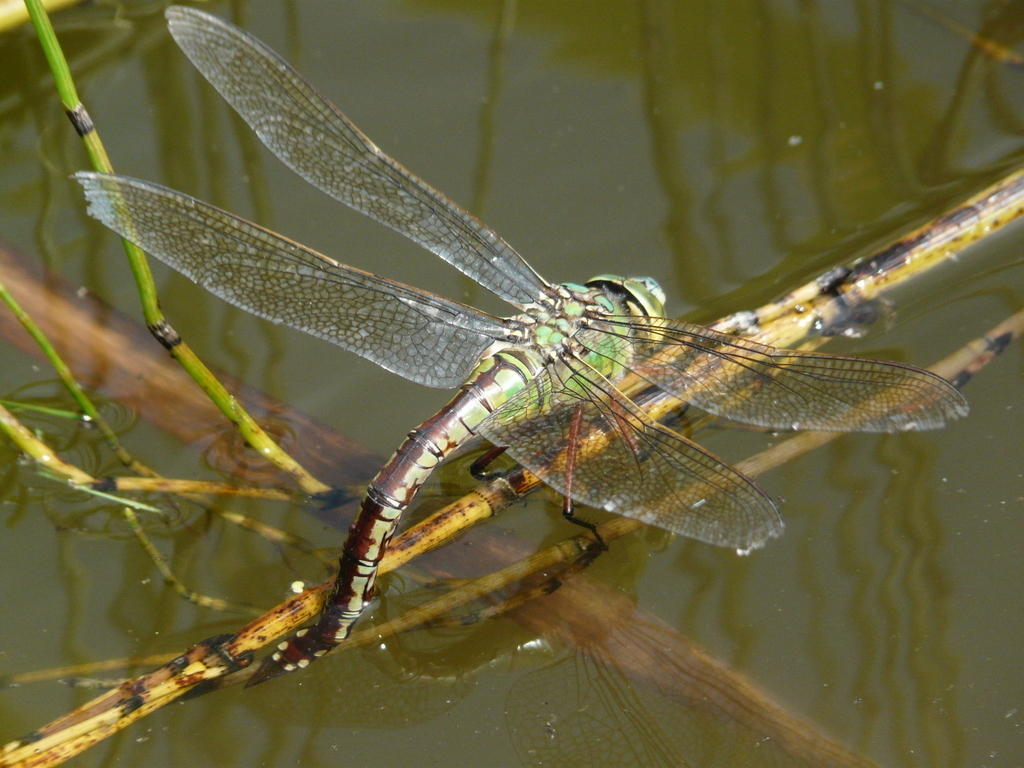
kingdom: Animalia
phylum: Arthropoda
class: Insecta
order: Odonata
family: Aeshnidae
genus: Anax
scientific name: Anax imperator
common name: Emperor dragonfly
